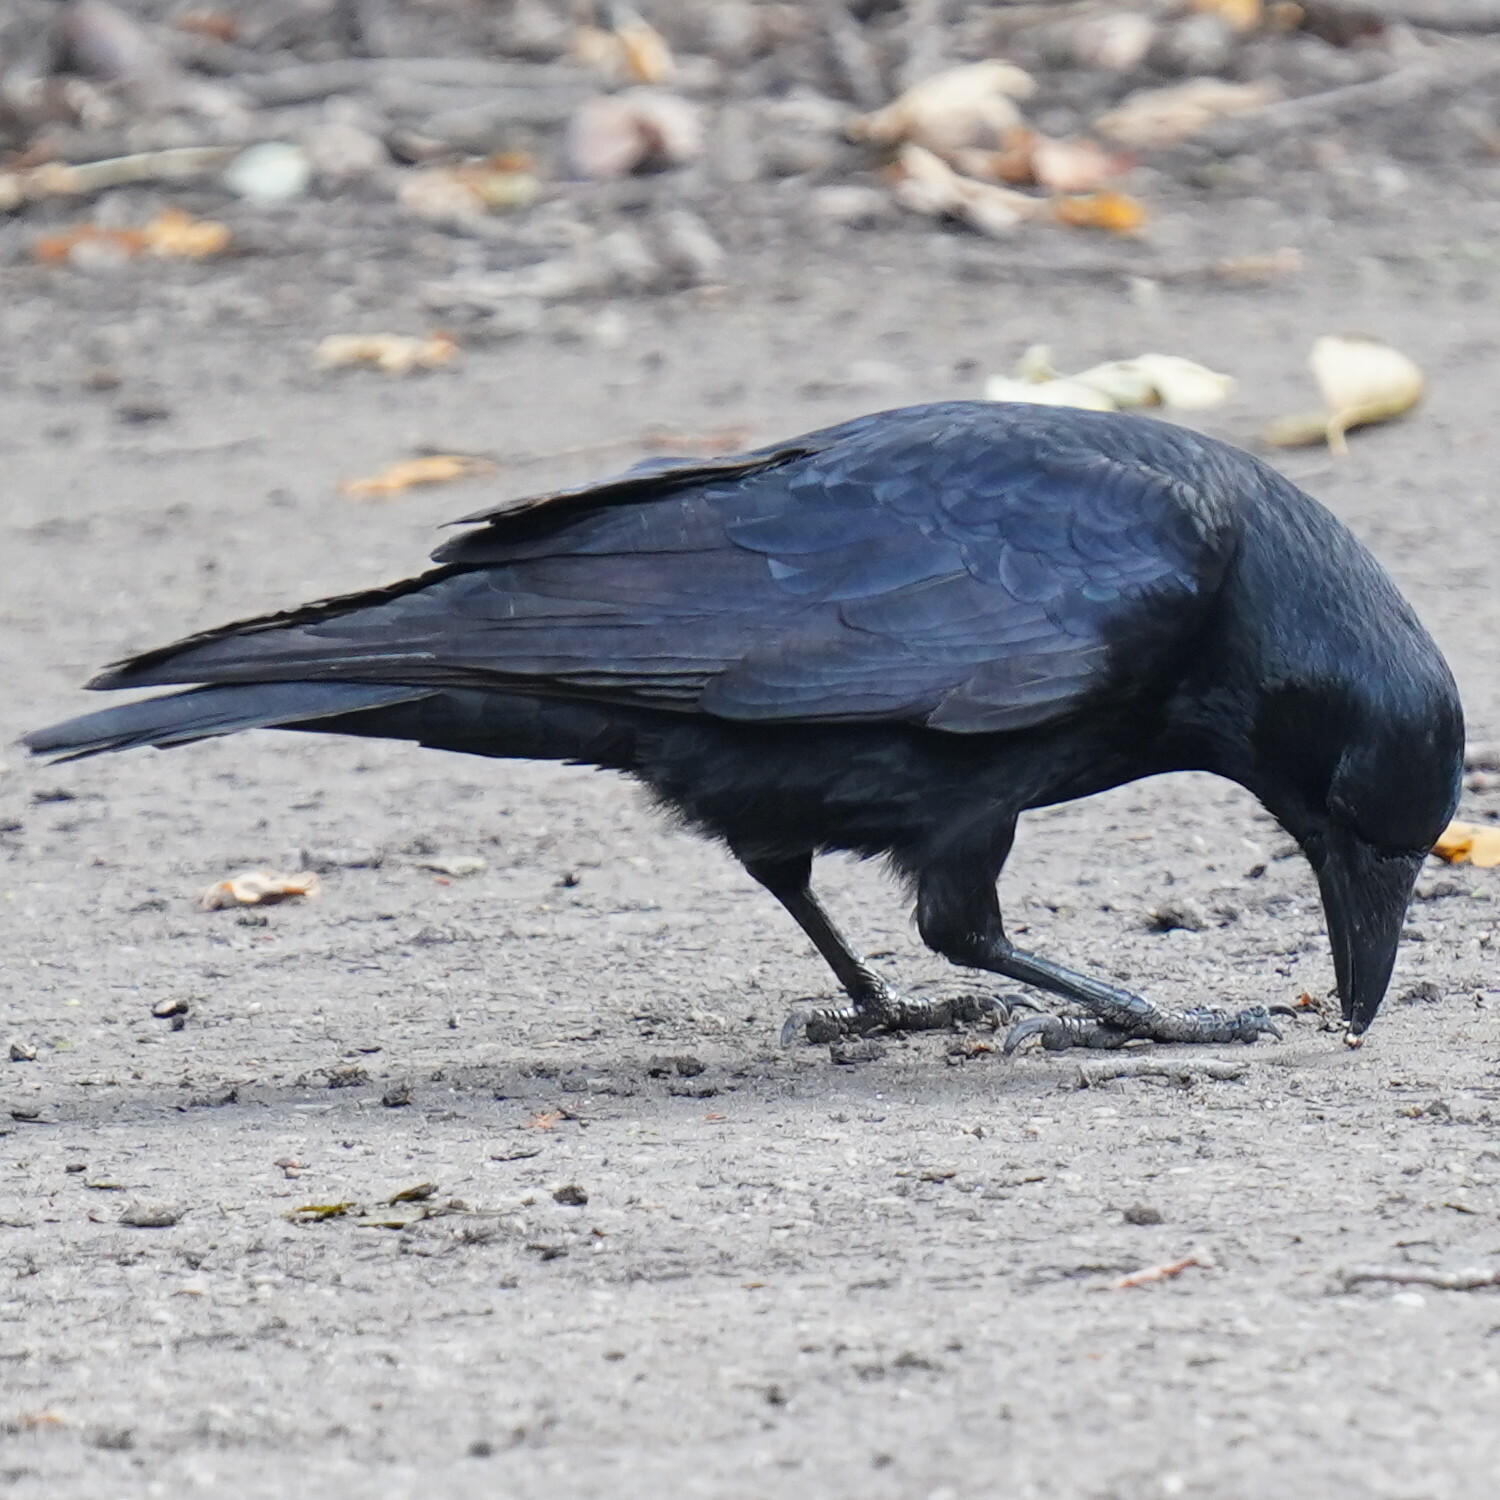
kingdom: Animalia
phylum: Chordata
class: Aves
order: Passeriformes
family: Corvidae
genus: Corvus
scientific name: Corvus corone
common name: Carrion crow
